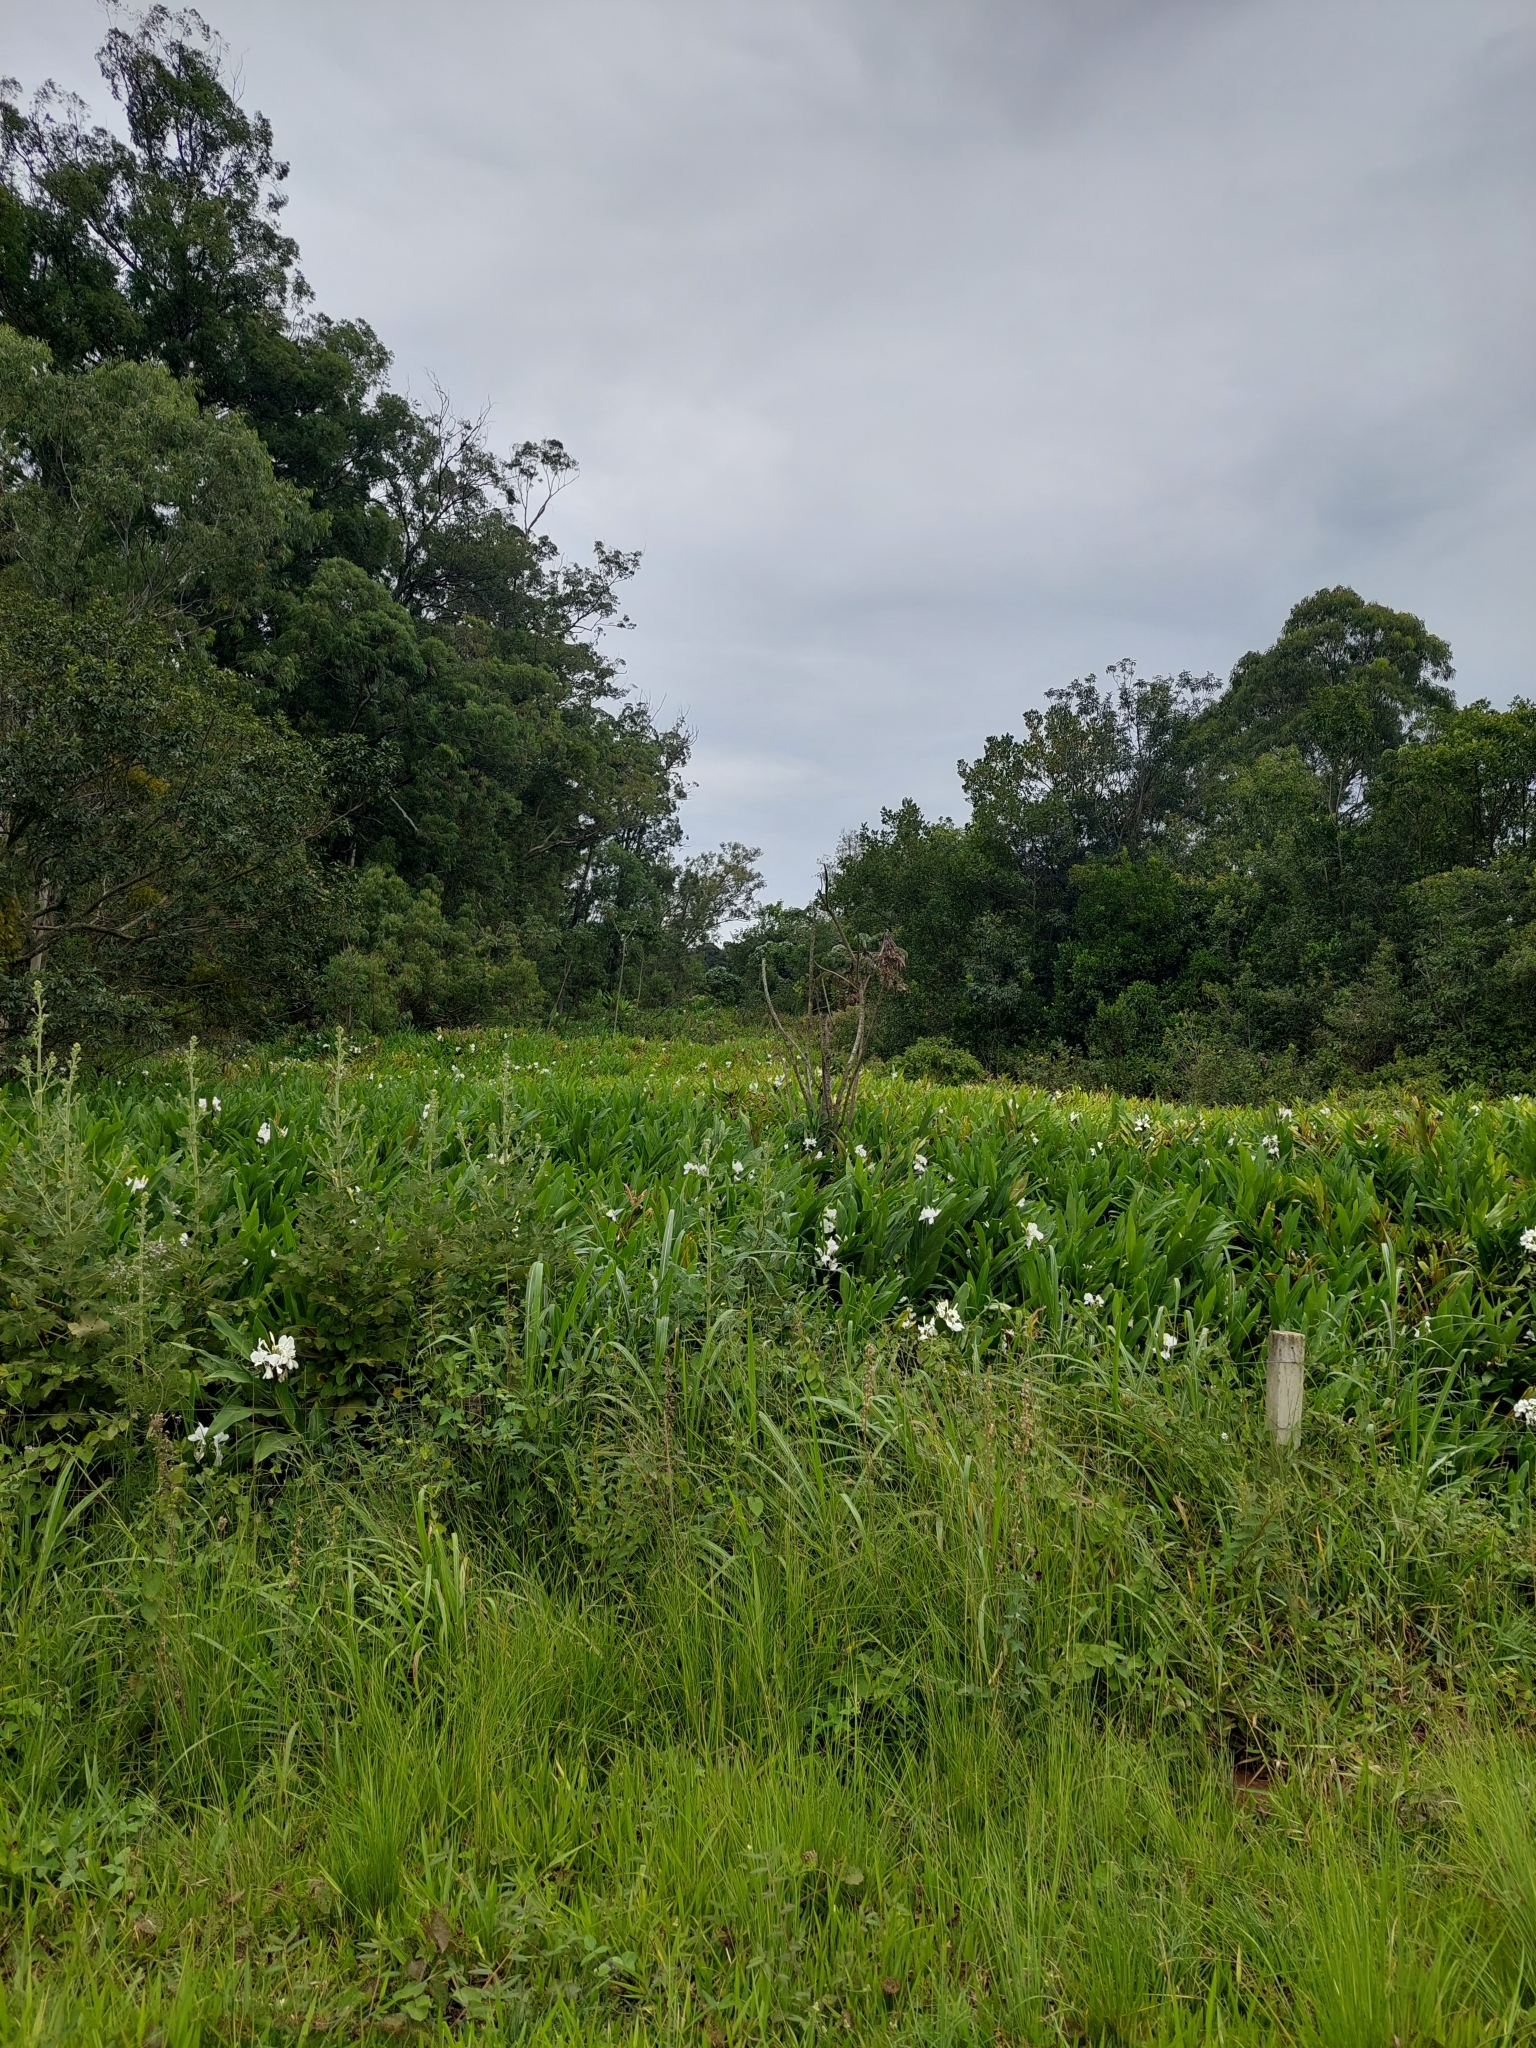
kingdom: Plantae
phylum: Tracheophyta
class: Liliopsida
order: Zingiberales
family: Zingiberaceae
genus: Hedychium
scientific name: Hedychium coronarium
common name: White garland-lily
